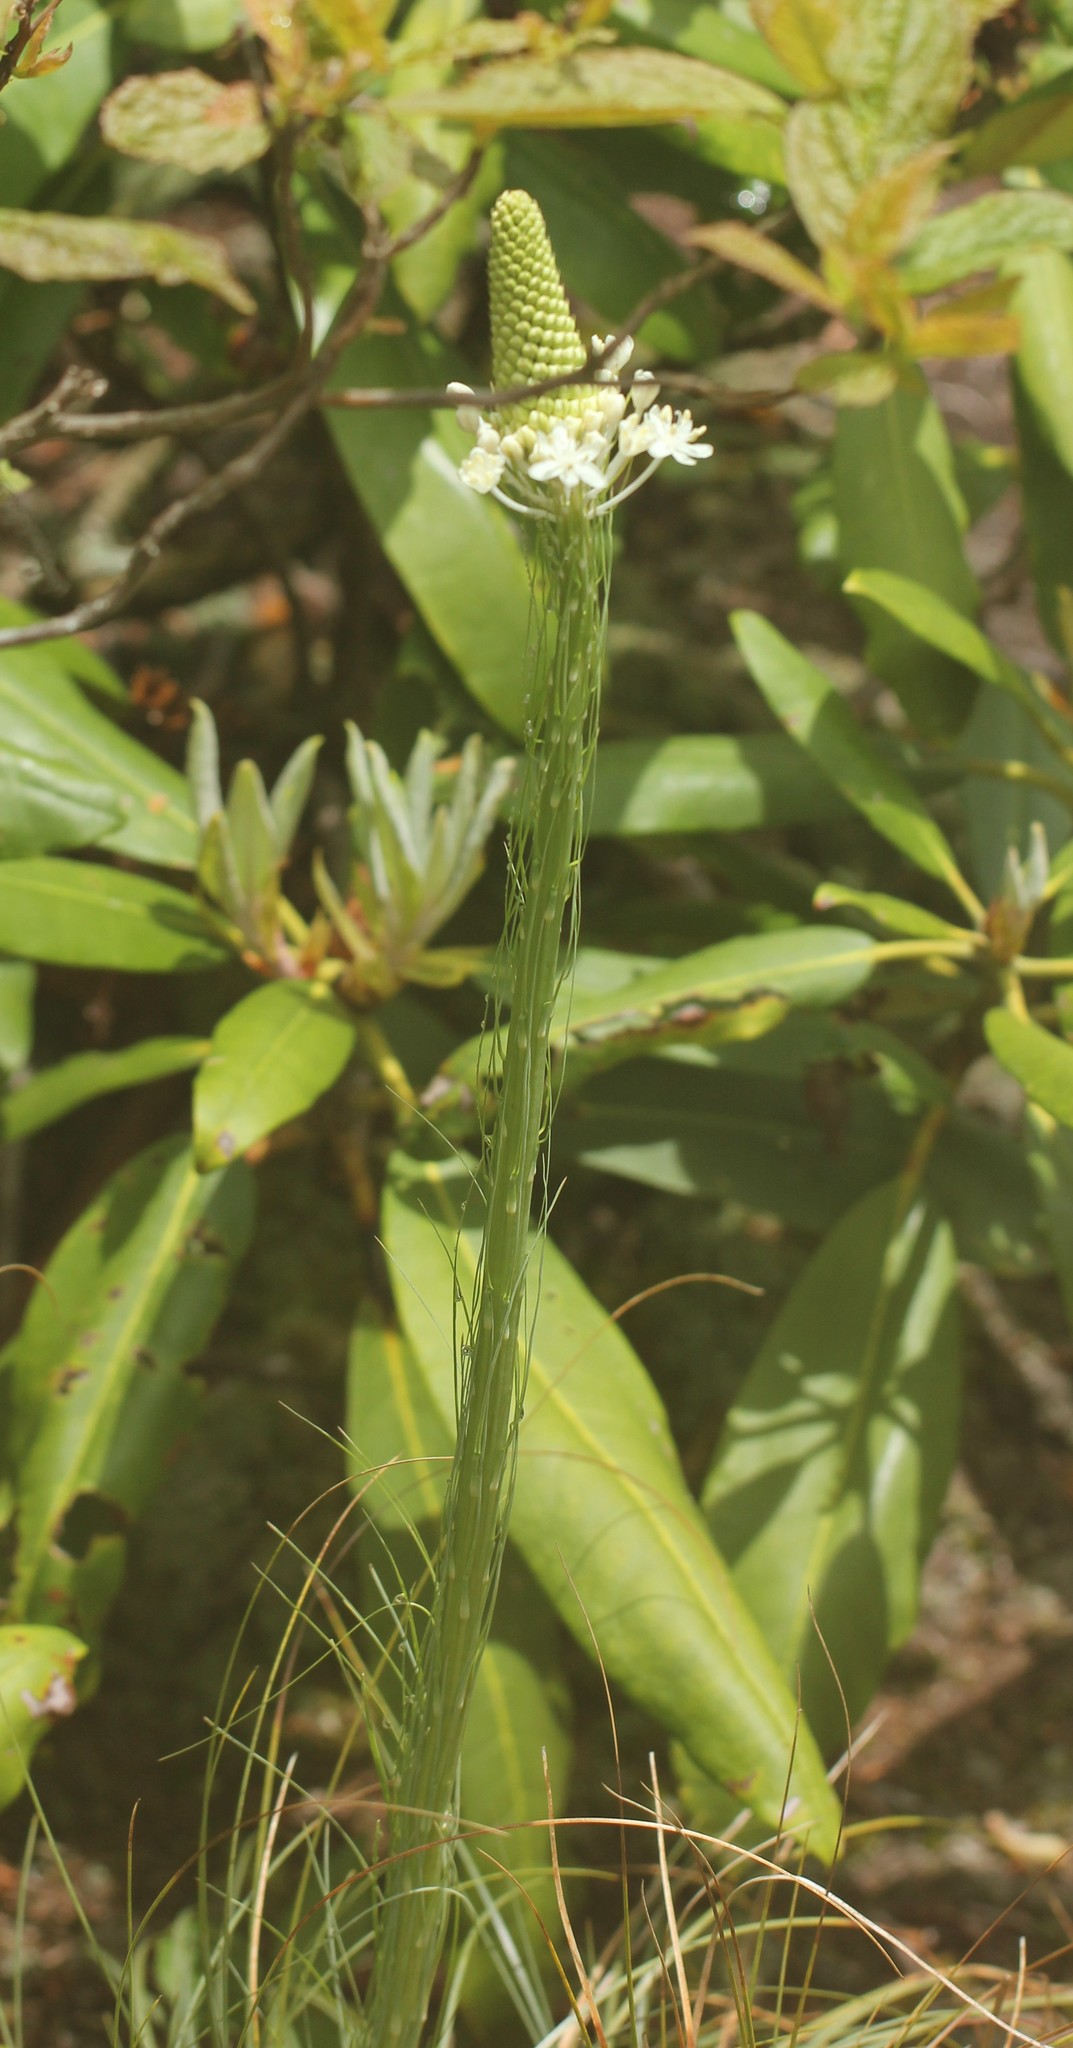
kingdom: Plantae
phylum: Tracheophyta
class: Liliopsida
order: Liliales
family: Melanthiaceae
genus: Xerophyllum
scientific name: Xerophyllum asphodeloides
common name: Mountain-asphodel
